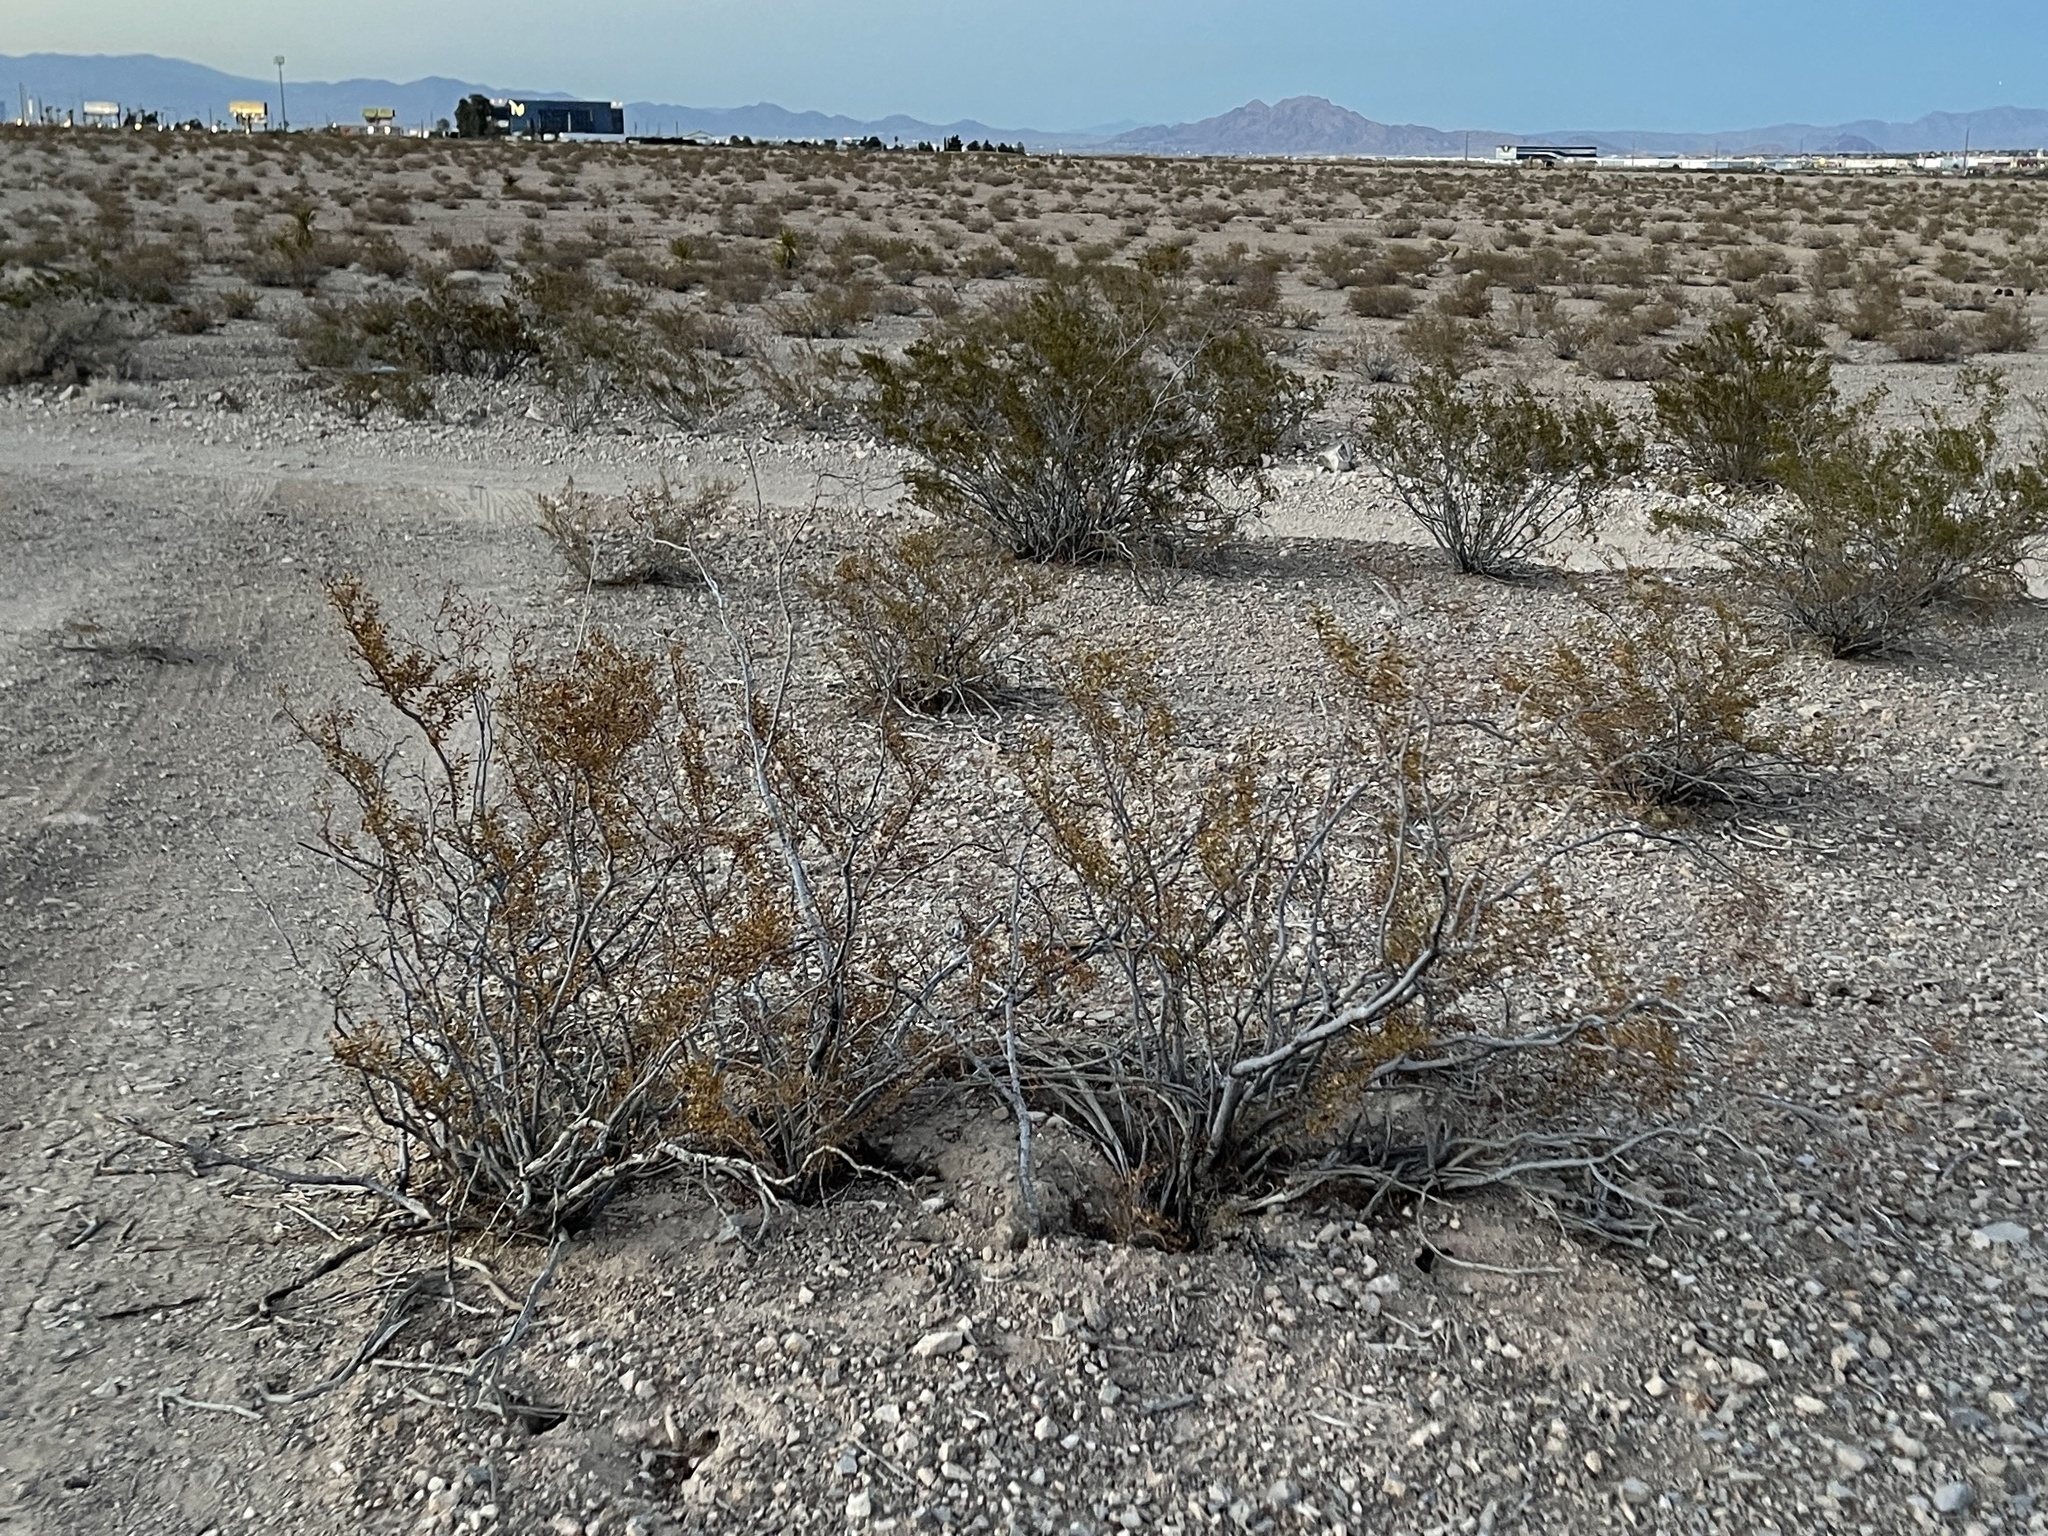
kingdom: Plantae
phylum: Tracheophyta
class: Magnoliopsida
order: Zygophyllales
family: Zygophyllaceae
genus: Larrea
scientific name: Larrea tridentata
